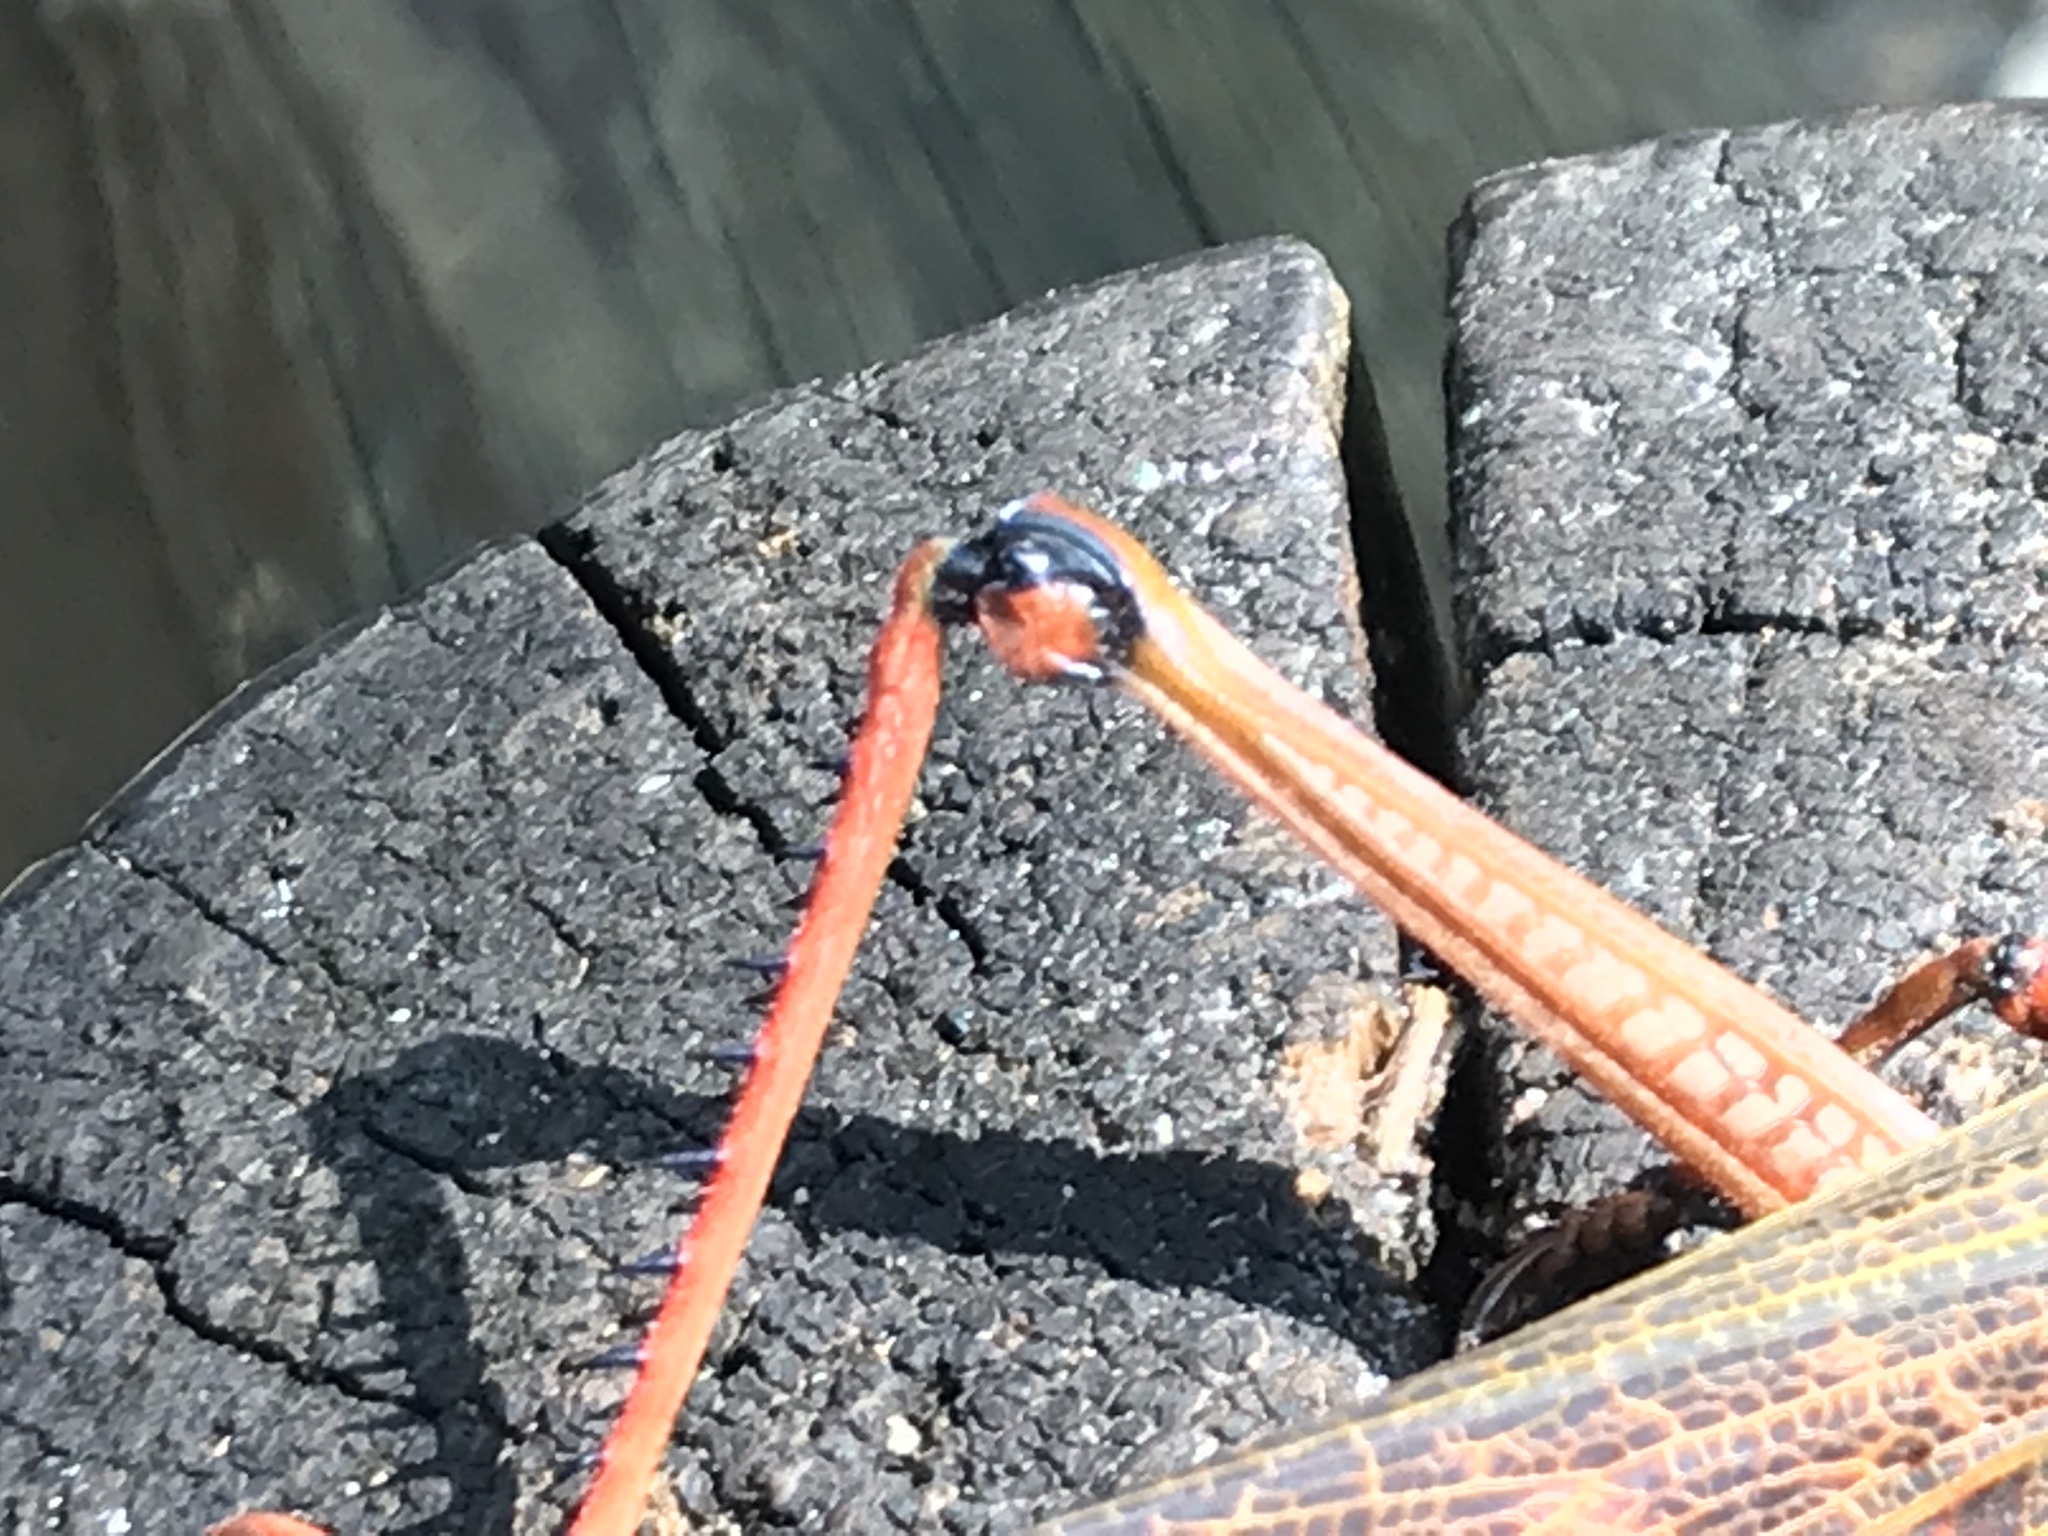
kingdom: Animalia
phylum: Arthropoda
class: Insecta
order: Orthoptera
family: Romaleidae
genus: Tropidacris
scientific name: Tropidacris cristata
